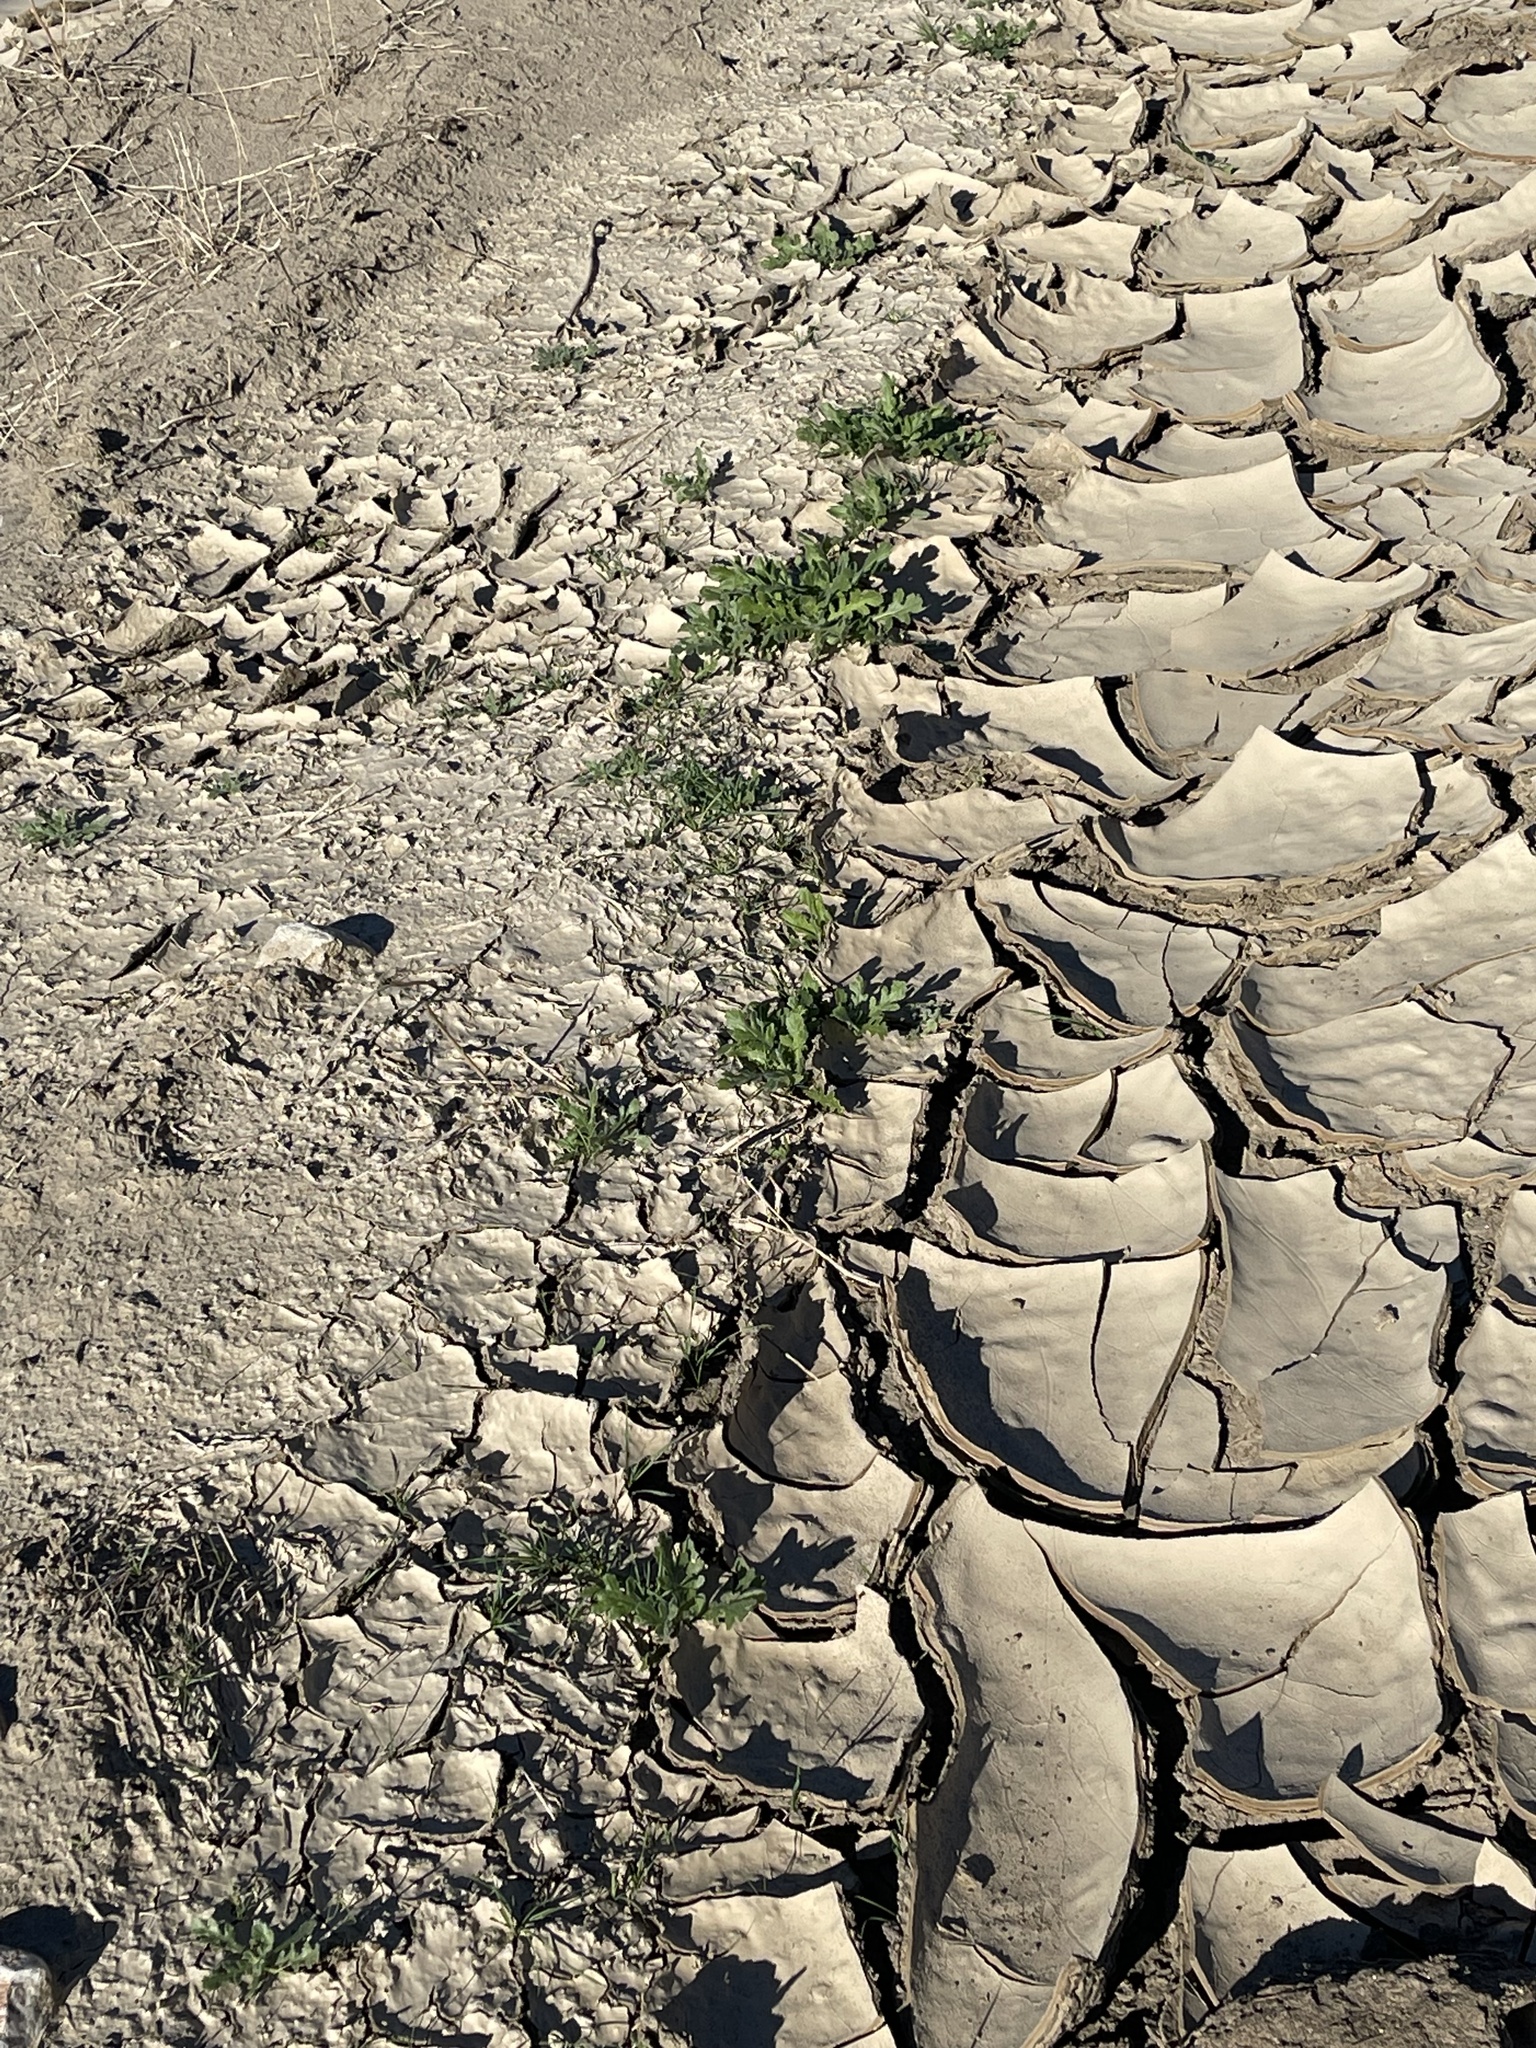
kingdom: Plantae
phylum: Tracheophyta
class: Magnoliopsida
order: Asterales
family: Asteraceae
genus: Volutaria
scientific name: Volutaria tubuliflora
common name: Desert knapweed
